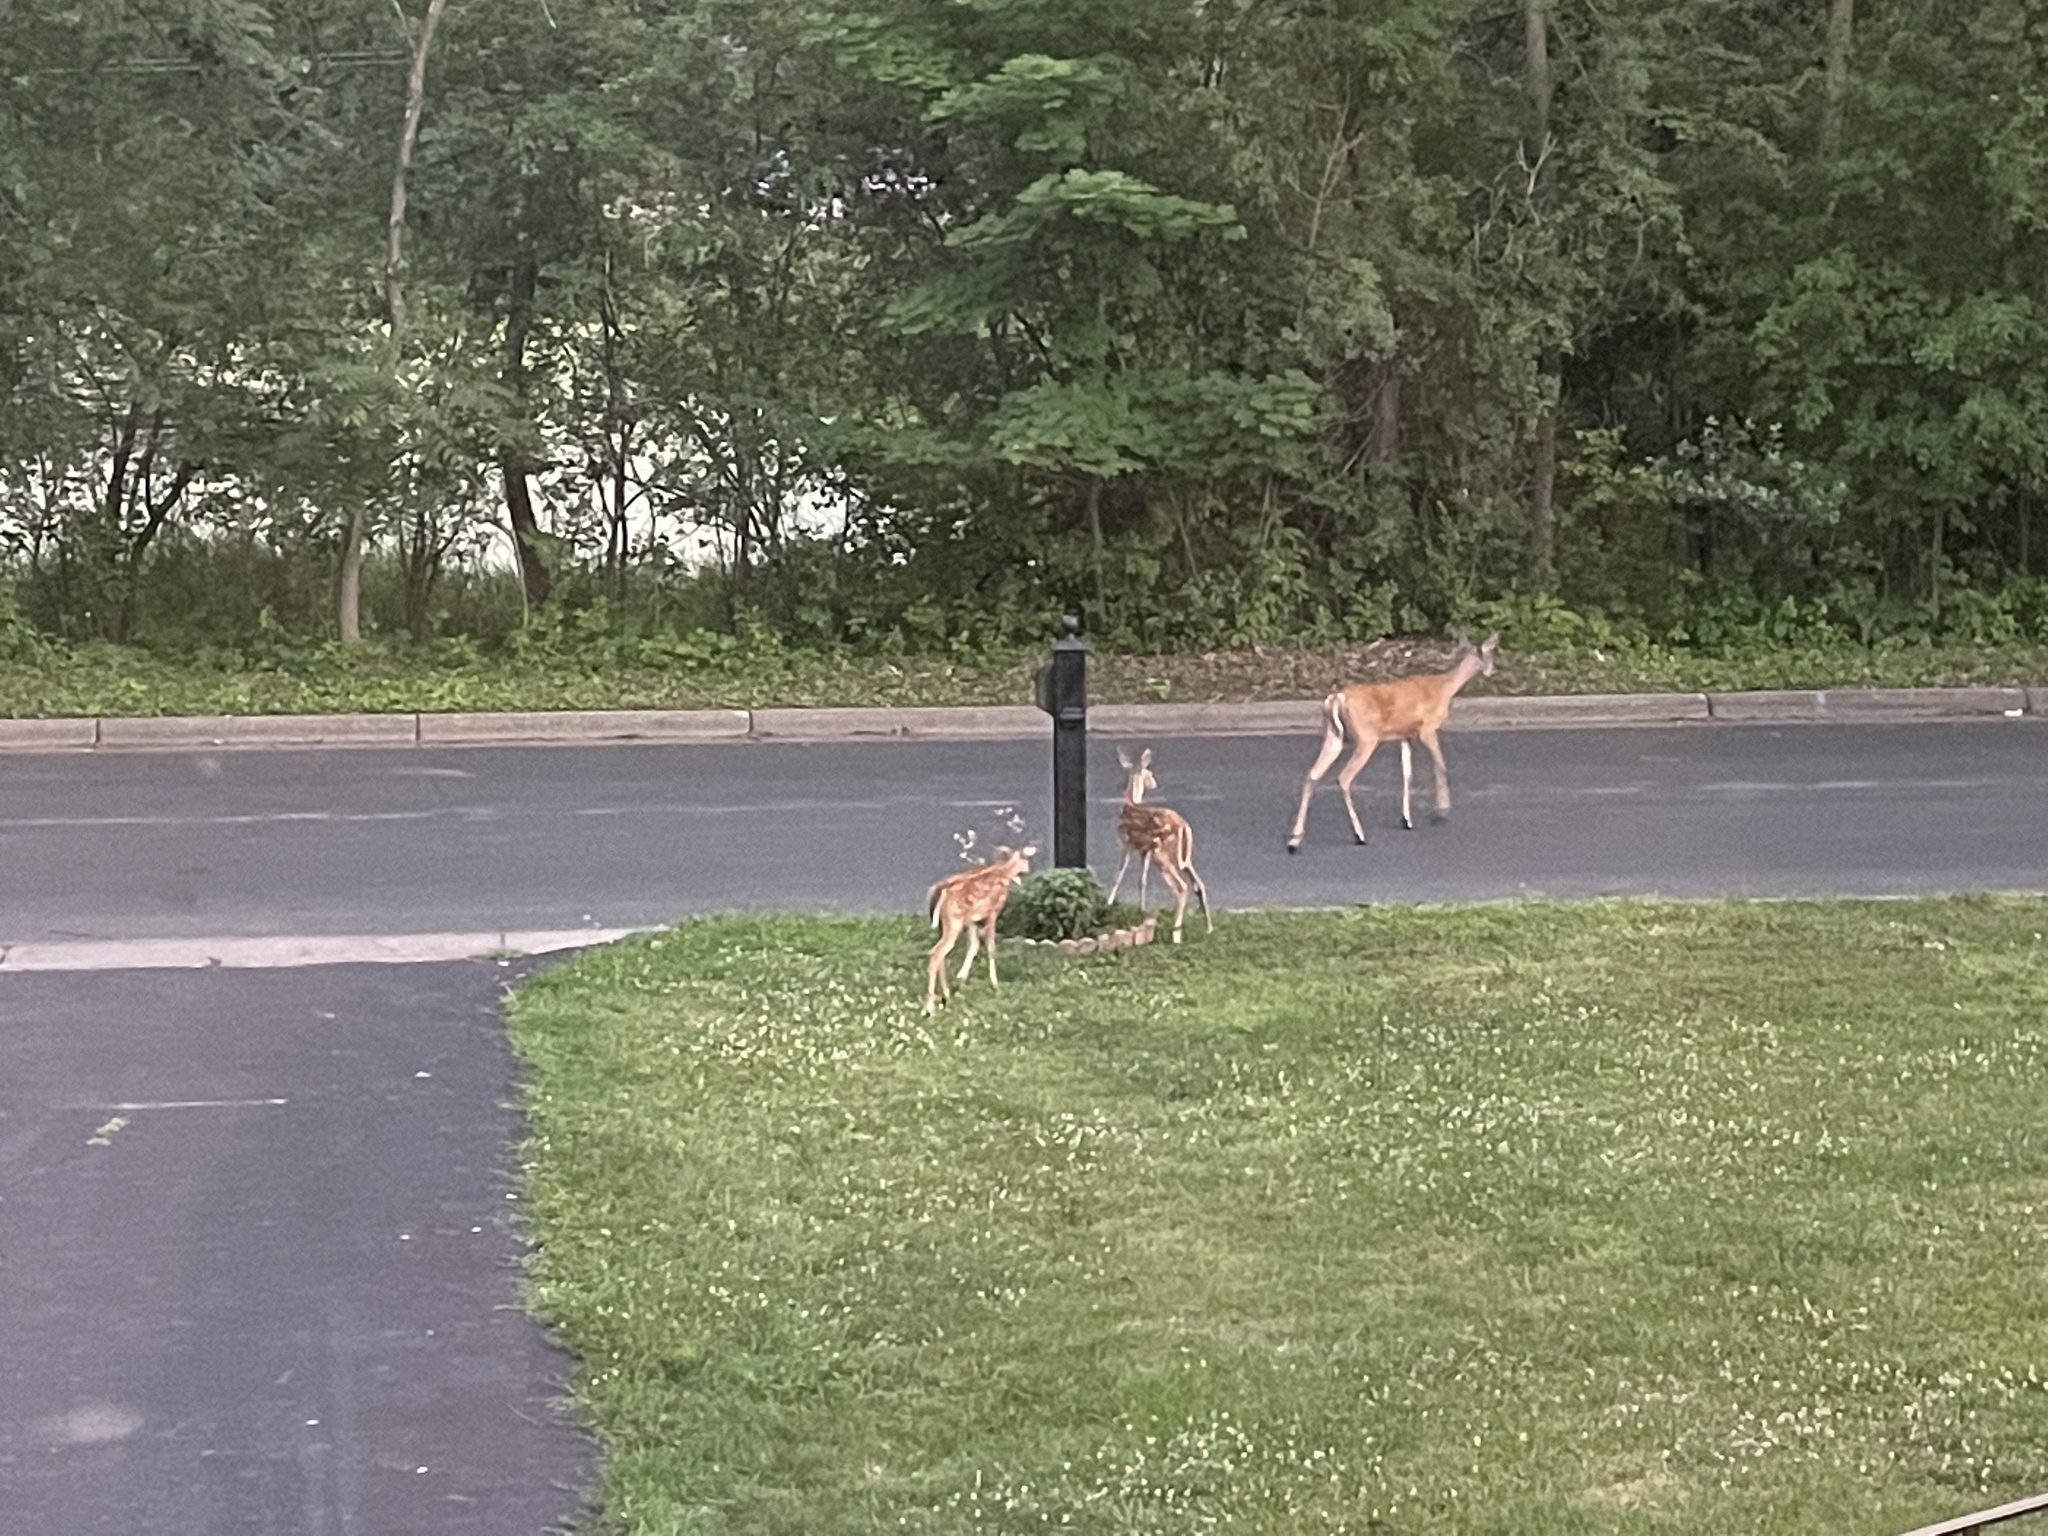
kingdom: Animalia
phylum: Chordata
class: Mammalia
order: Artiodactyla
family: Cervidae
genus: Odocoileus
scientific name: Odocoileus virginianus
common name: White-tailed deer
